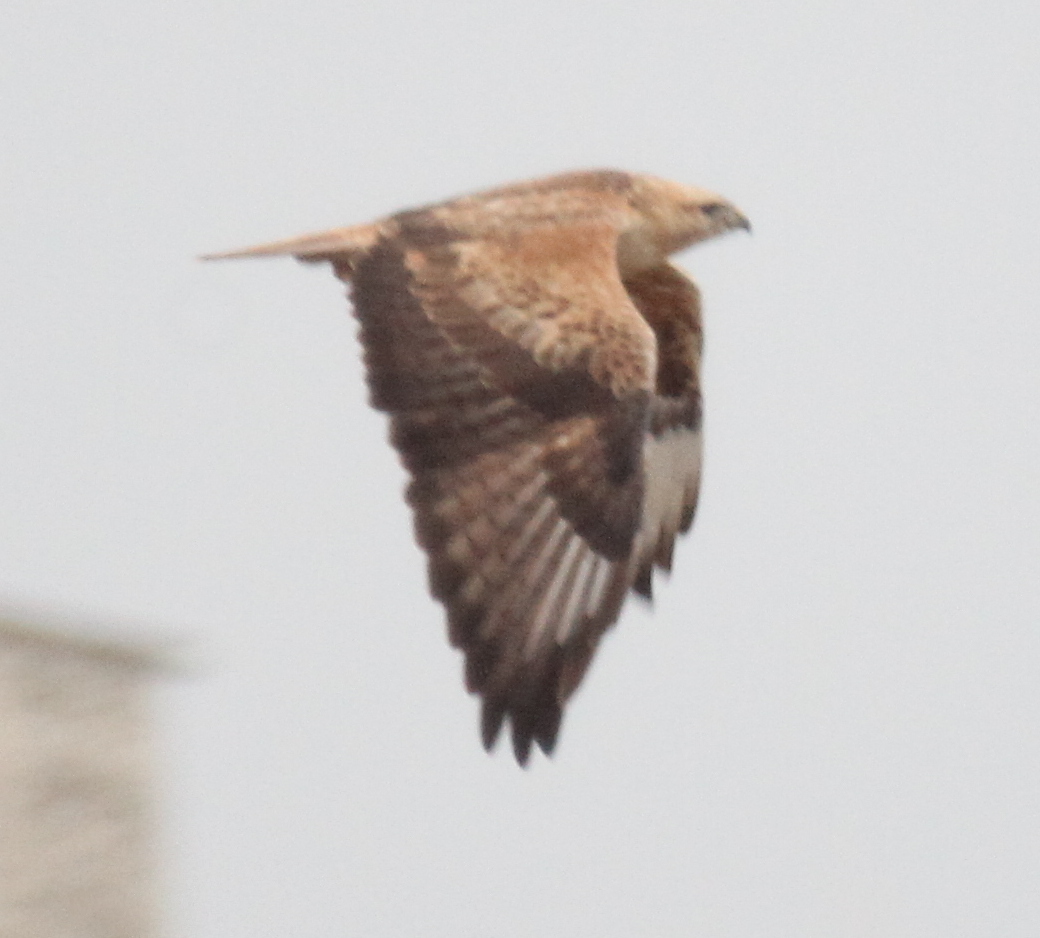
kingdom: Animalia
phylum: Chordata
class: Aves
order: Accipitriformes
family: Accipitridae
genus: Buteo
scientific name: Buteo rufinus
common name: Long-legged buzzard
